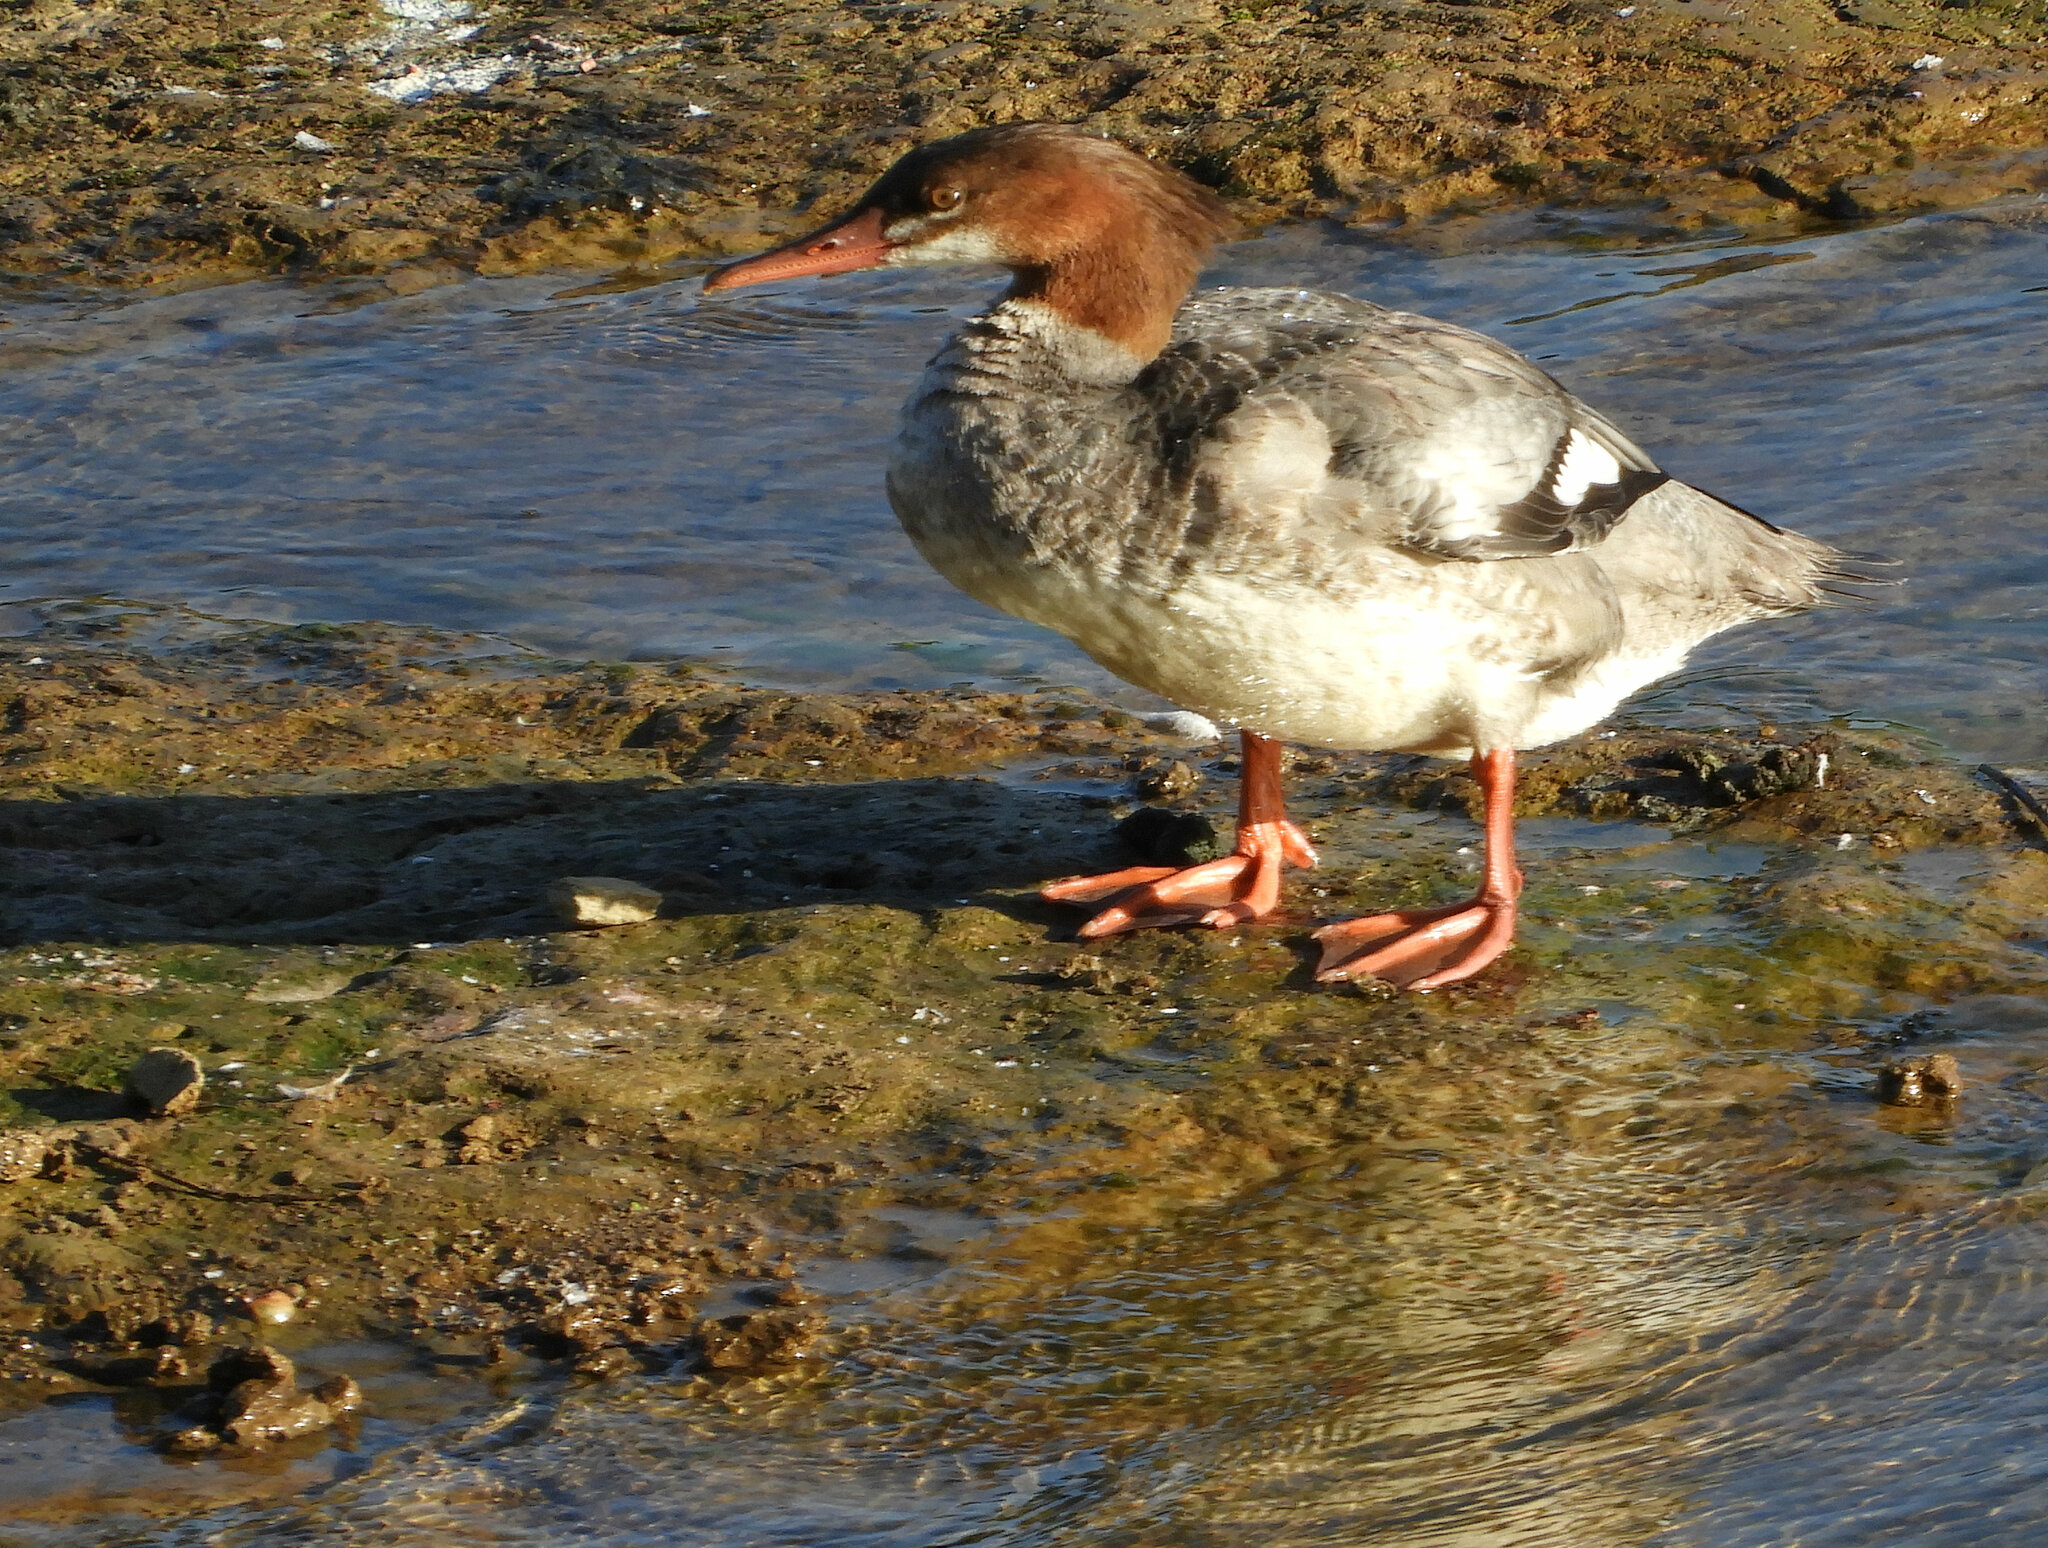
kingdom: Animalia
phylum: Chordata
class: Aves
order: Anseriformes
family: Anatidae
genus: Mergus
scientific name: Mergus merganser
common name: Common merganser
